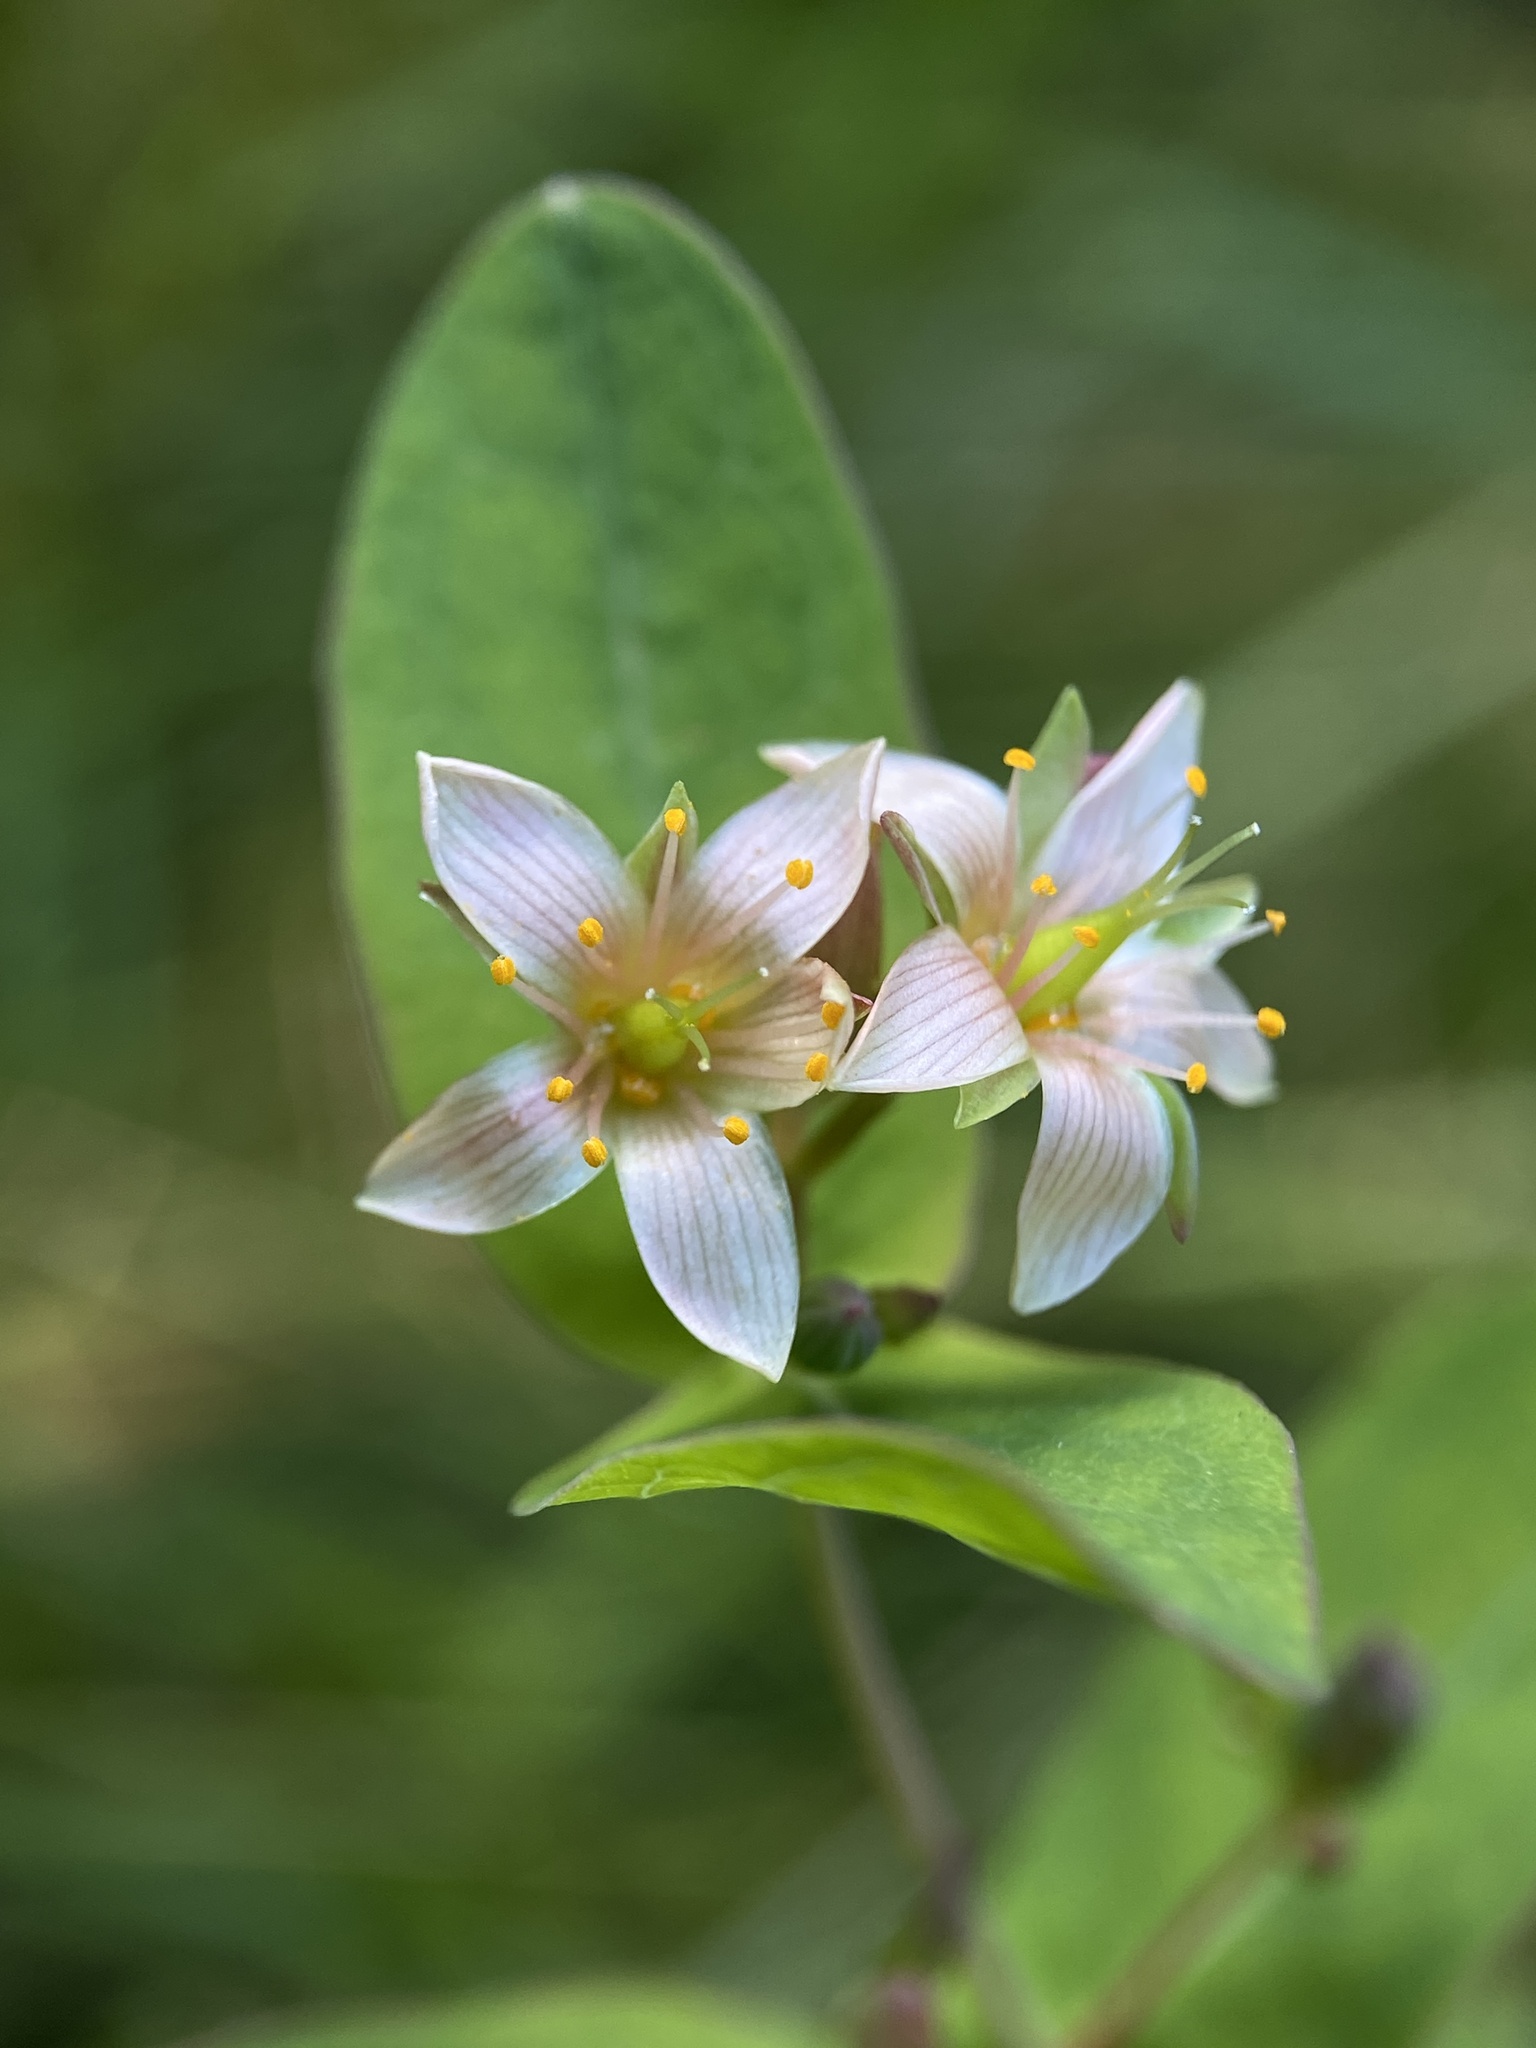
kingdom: Plantae
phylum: Tracheophyta
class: Magnoliopsida
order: Malpighiales
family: Hypericaceae
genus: Triadenum
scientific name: Triadenum virginicum
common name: Marsh st. john's-wort
